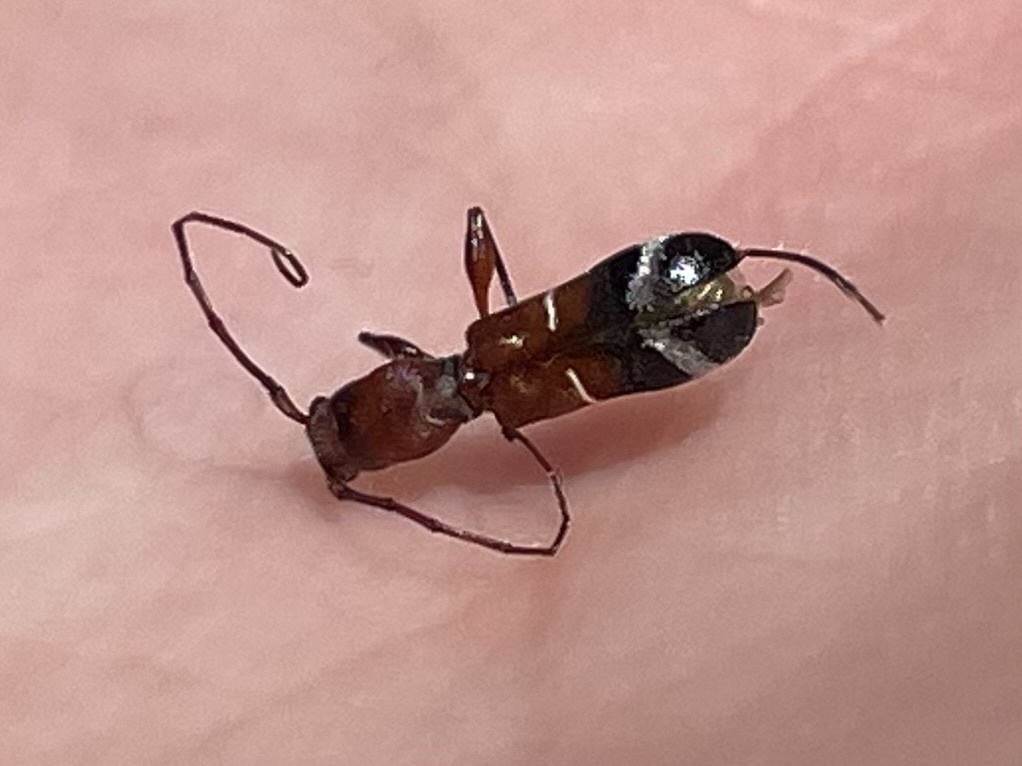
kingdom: Animalia
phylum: Arthropoda
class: Insecta
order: Coleoptera
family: Cerambycidae
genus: Euderces
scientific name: Euderces pini
